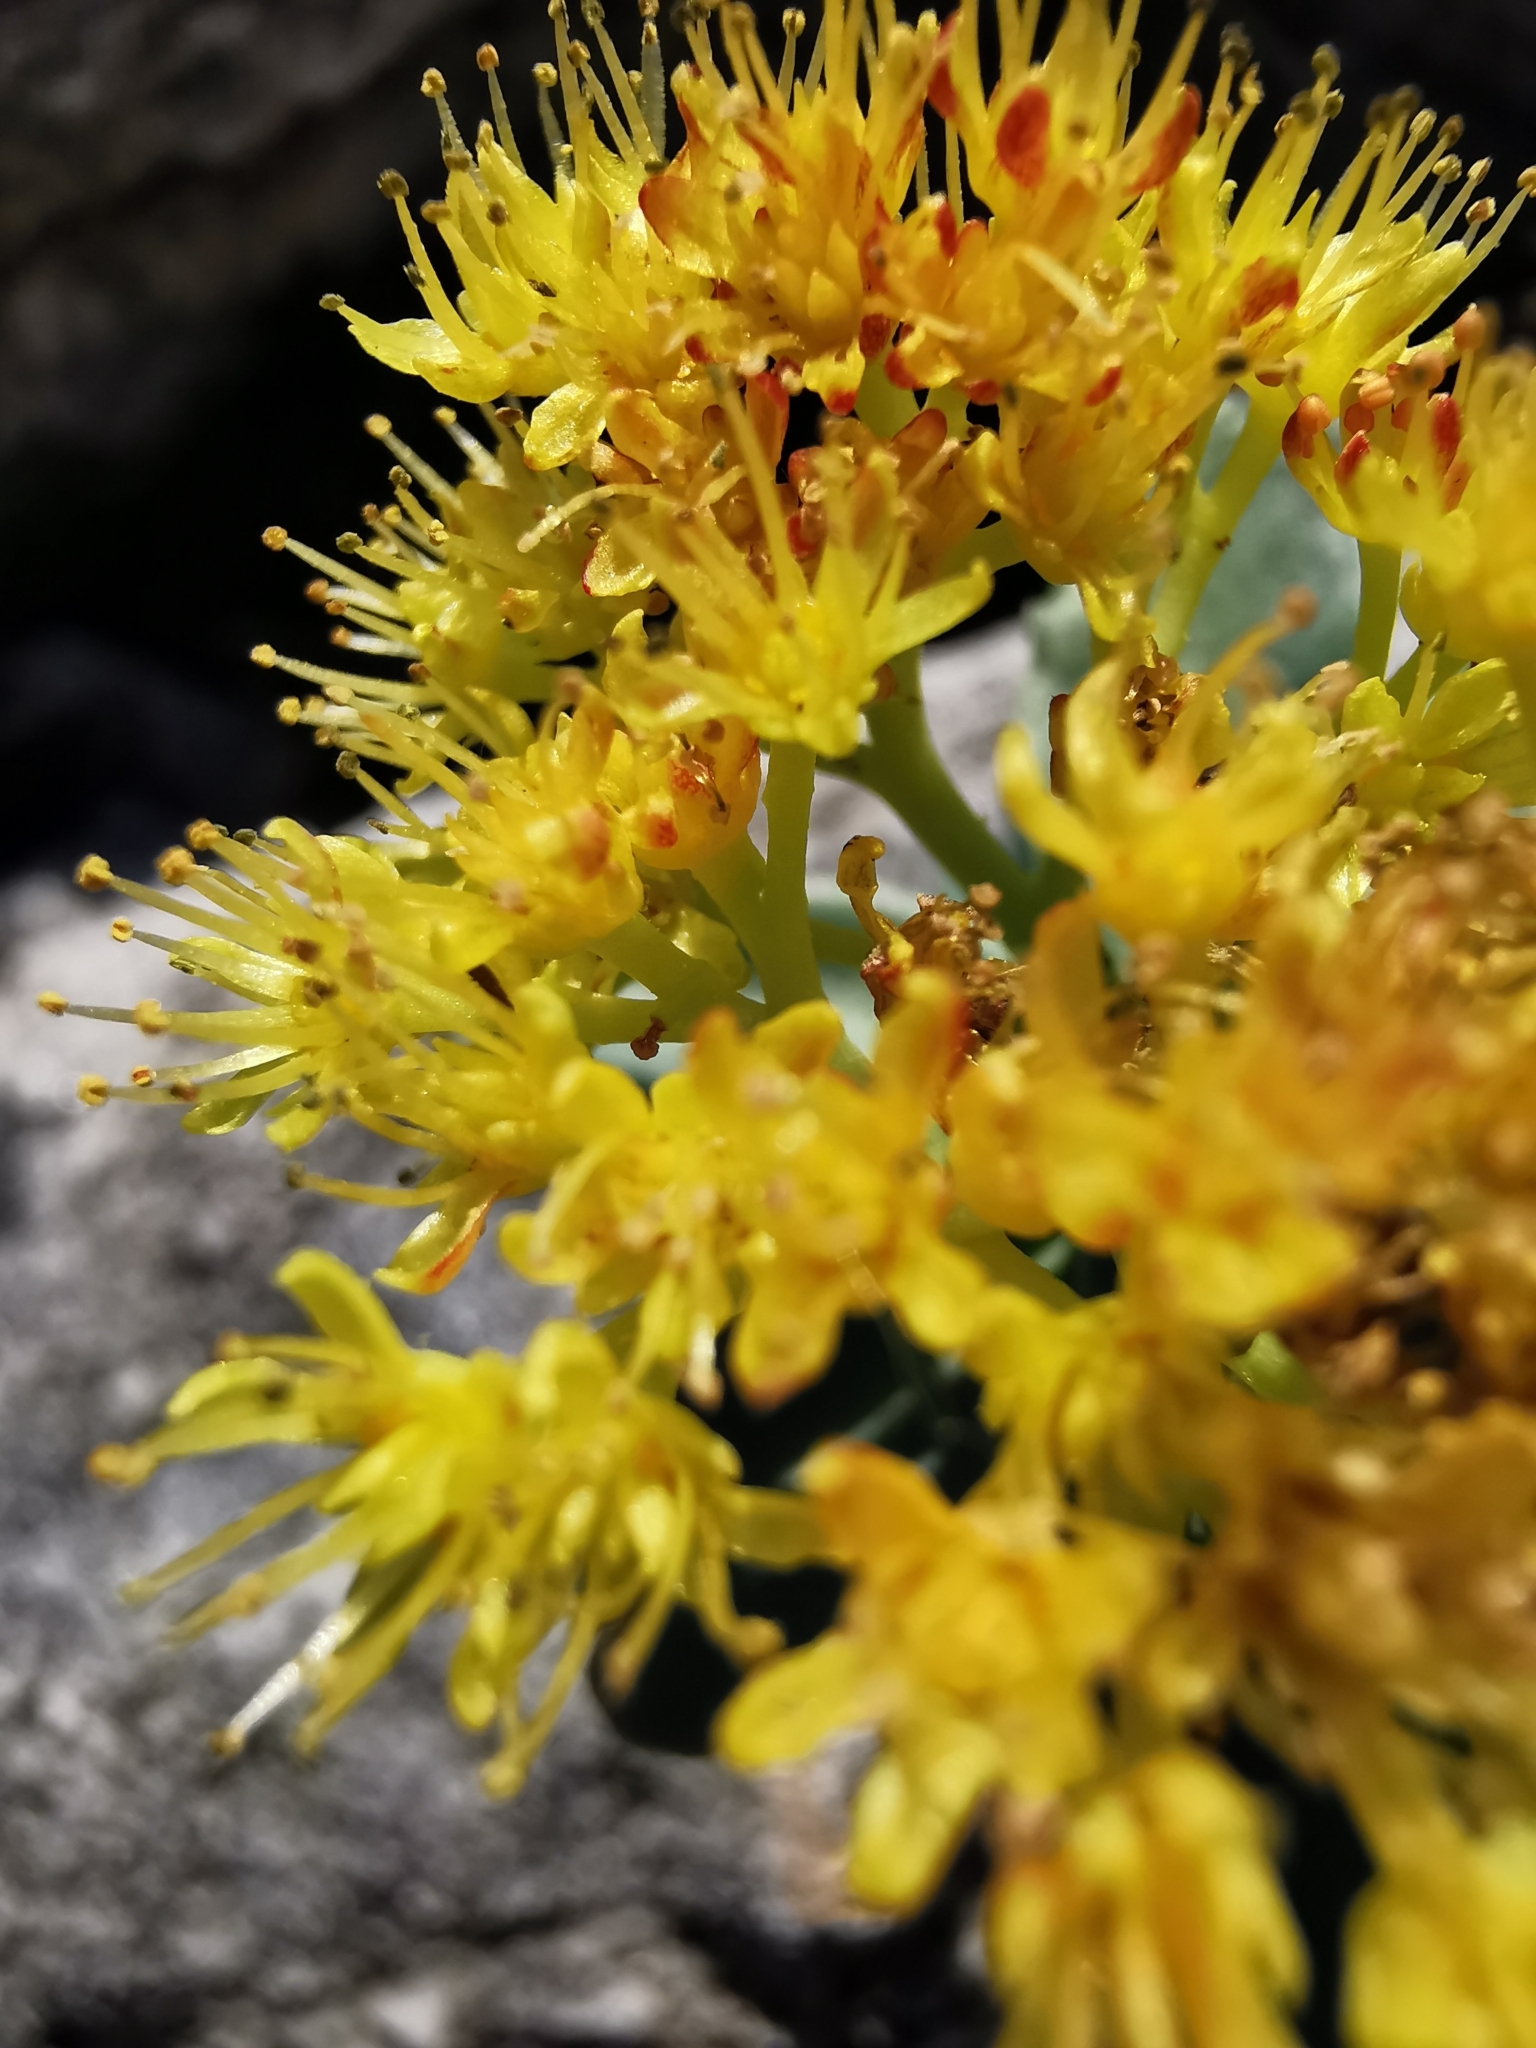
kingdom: Plantae
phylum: Tracheophyta
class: Magnoliopsida
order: Saxifragales
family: Crassulaceae
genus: Rhodiola
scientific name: Rhodiola rosea
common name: Roseroot
